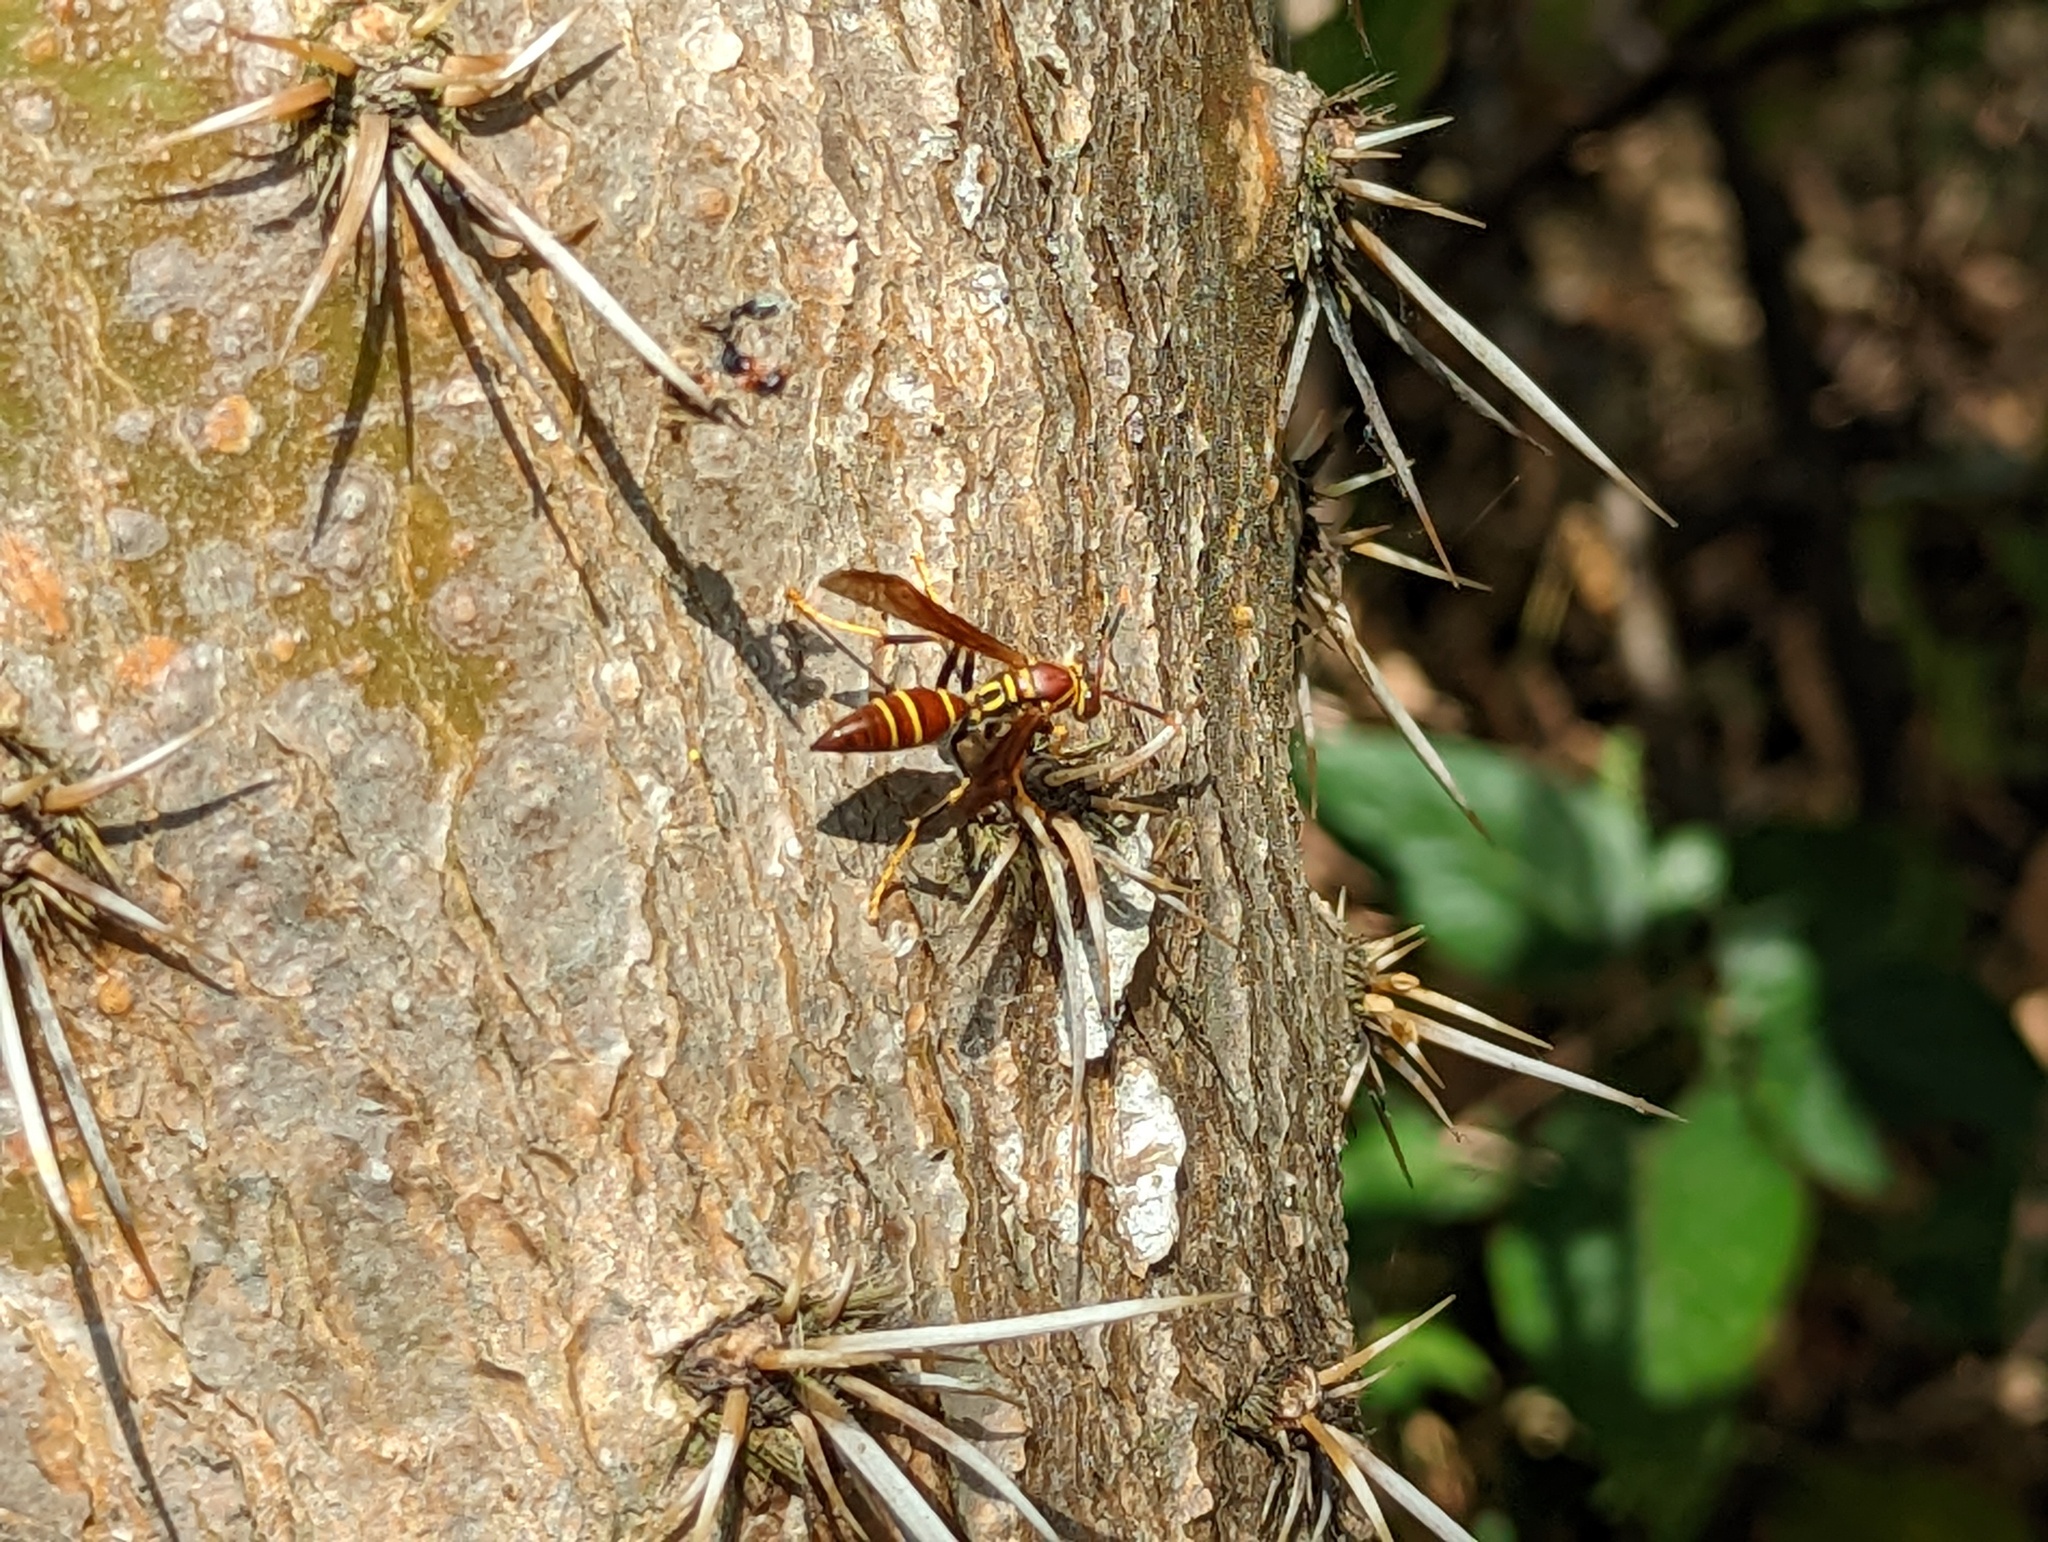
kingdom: Animalia
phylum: Arthropoda
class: Insecta
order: Hymenoptera
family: Eumenidae
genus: Polistes
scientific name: Polistes instabilis
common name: Unstable paper wasp
